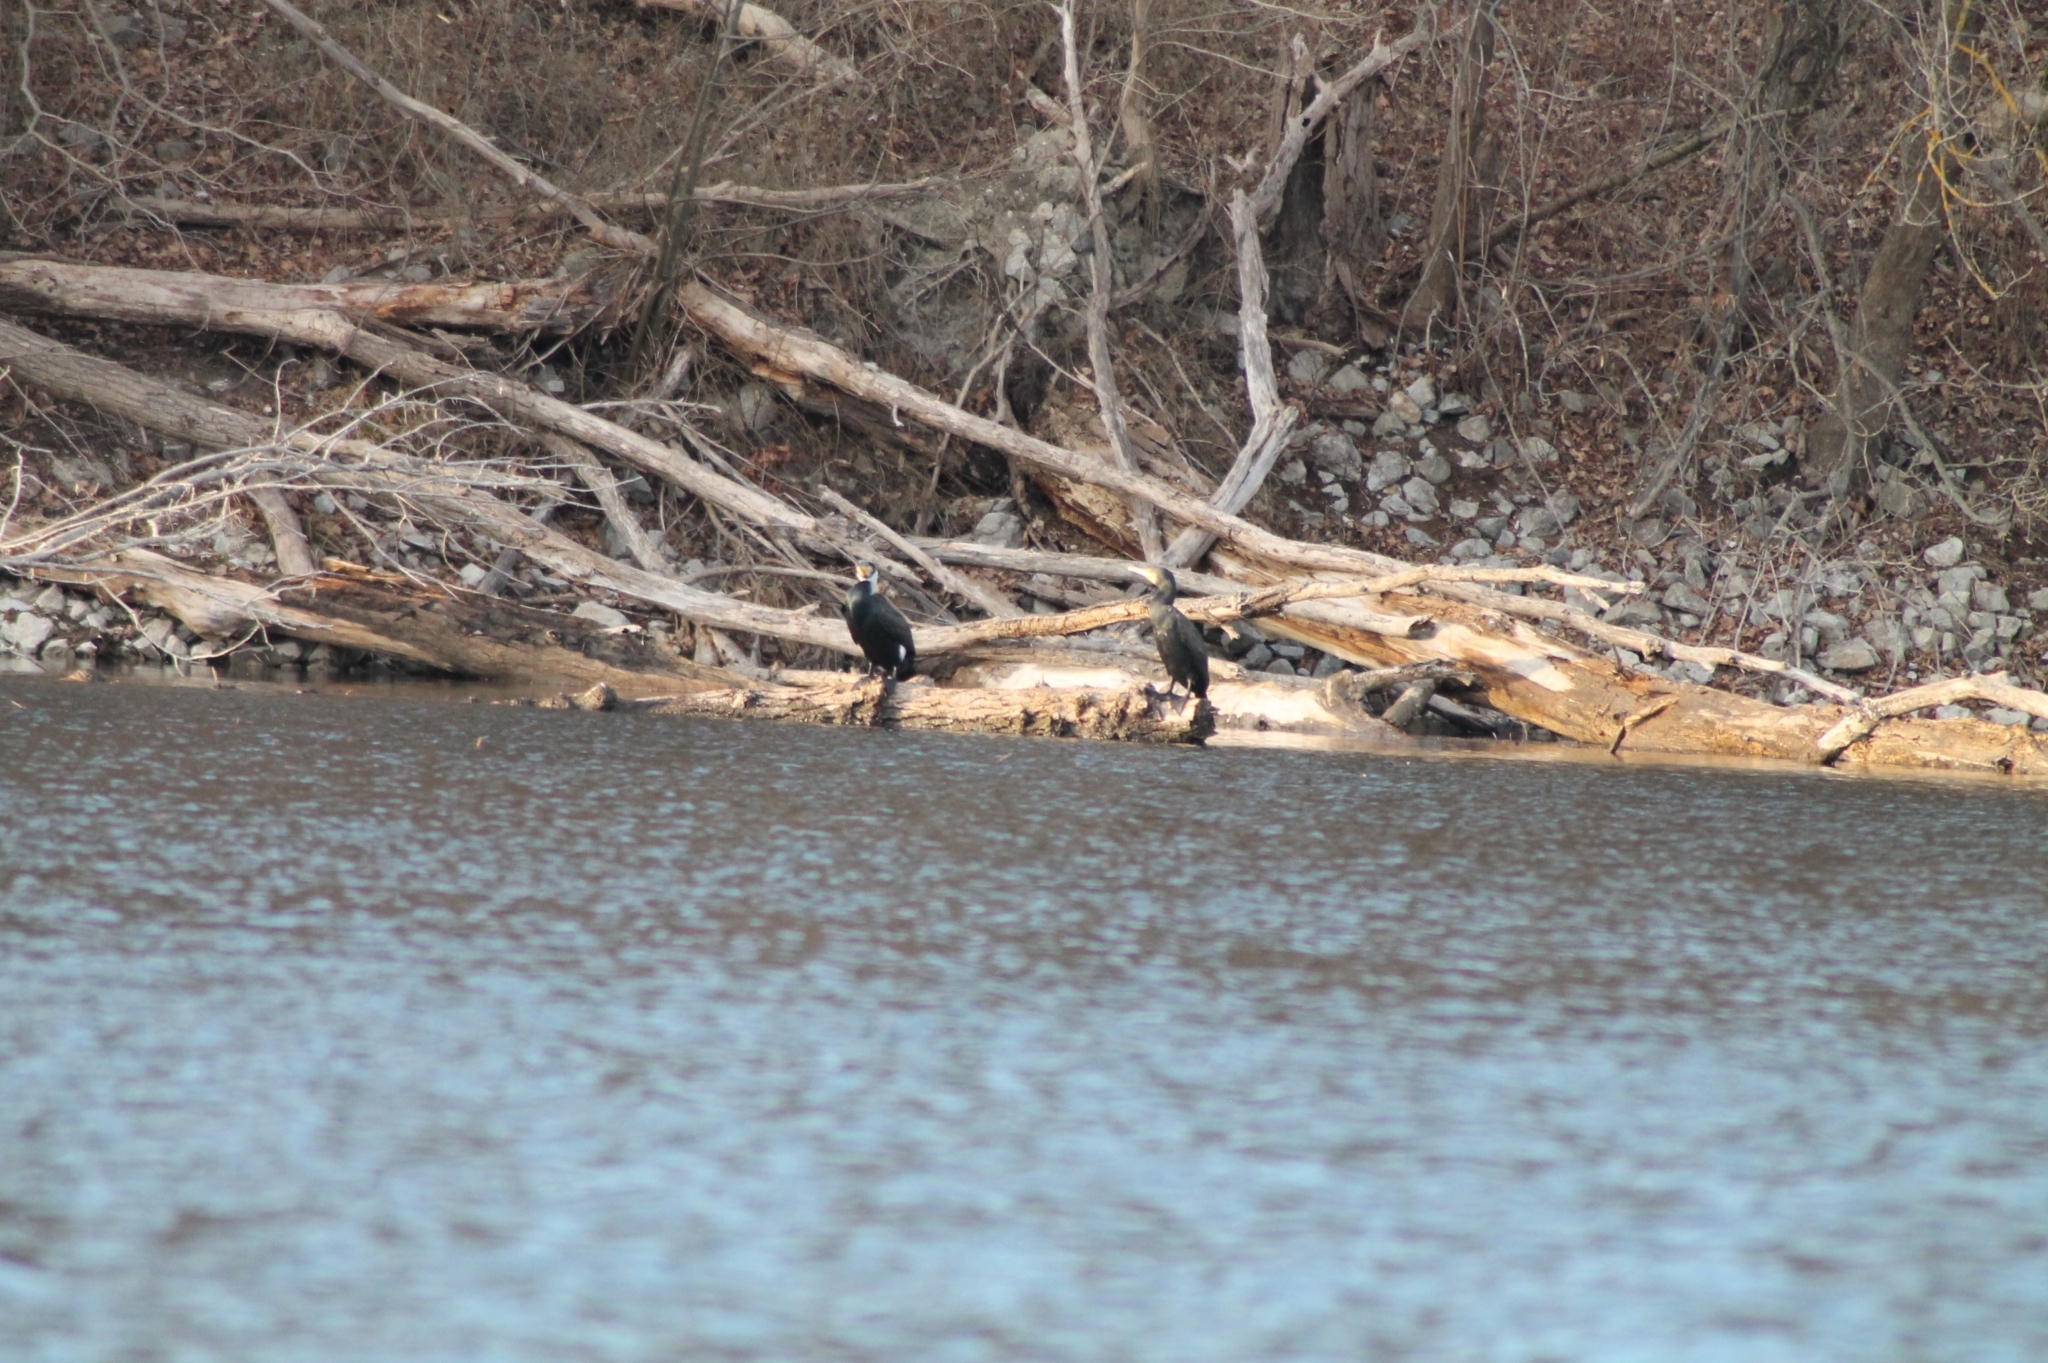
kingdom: Animalia
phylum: Chordata
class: Aves
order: Suliformes
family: Phalacrocoracidae
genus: Phalacrocorax
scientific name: Phalacrocorax carbo
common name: Great cormorant
